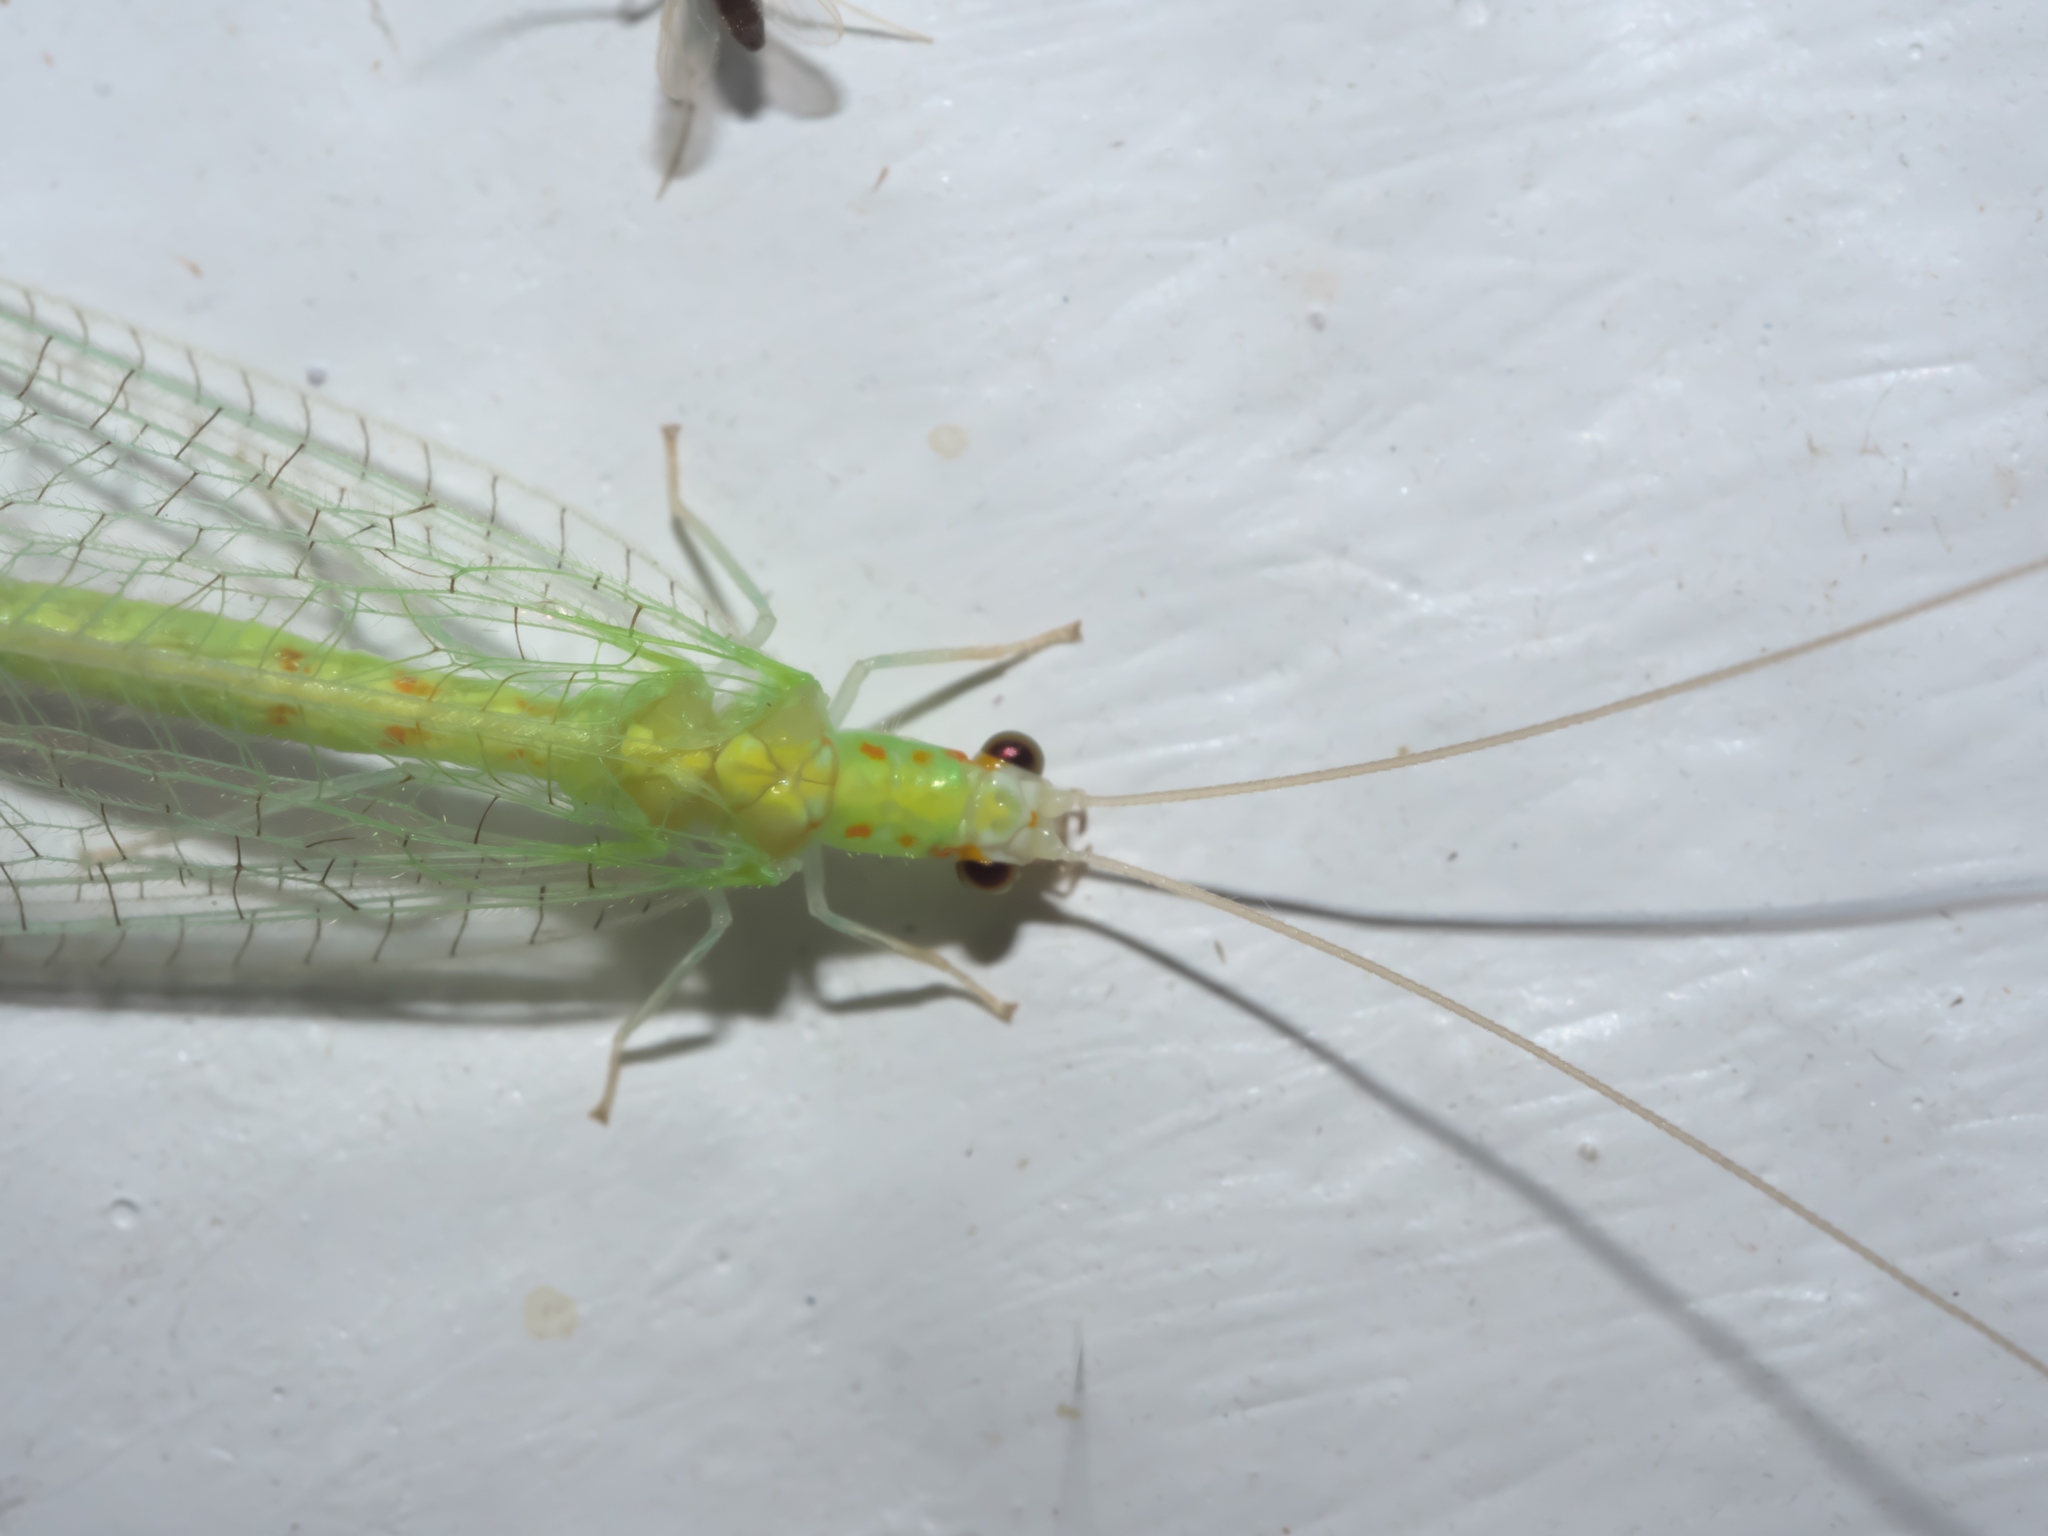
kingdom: Animalia
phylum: Arthropoda
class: Insecta
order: Neuroptera
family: Chrysopidae
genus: Chrysopa
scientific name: Chrysopa quadripunctata
